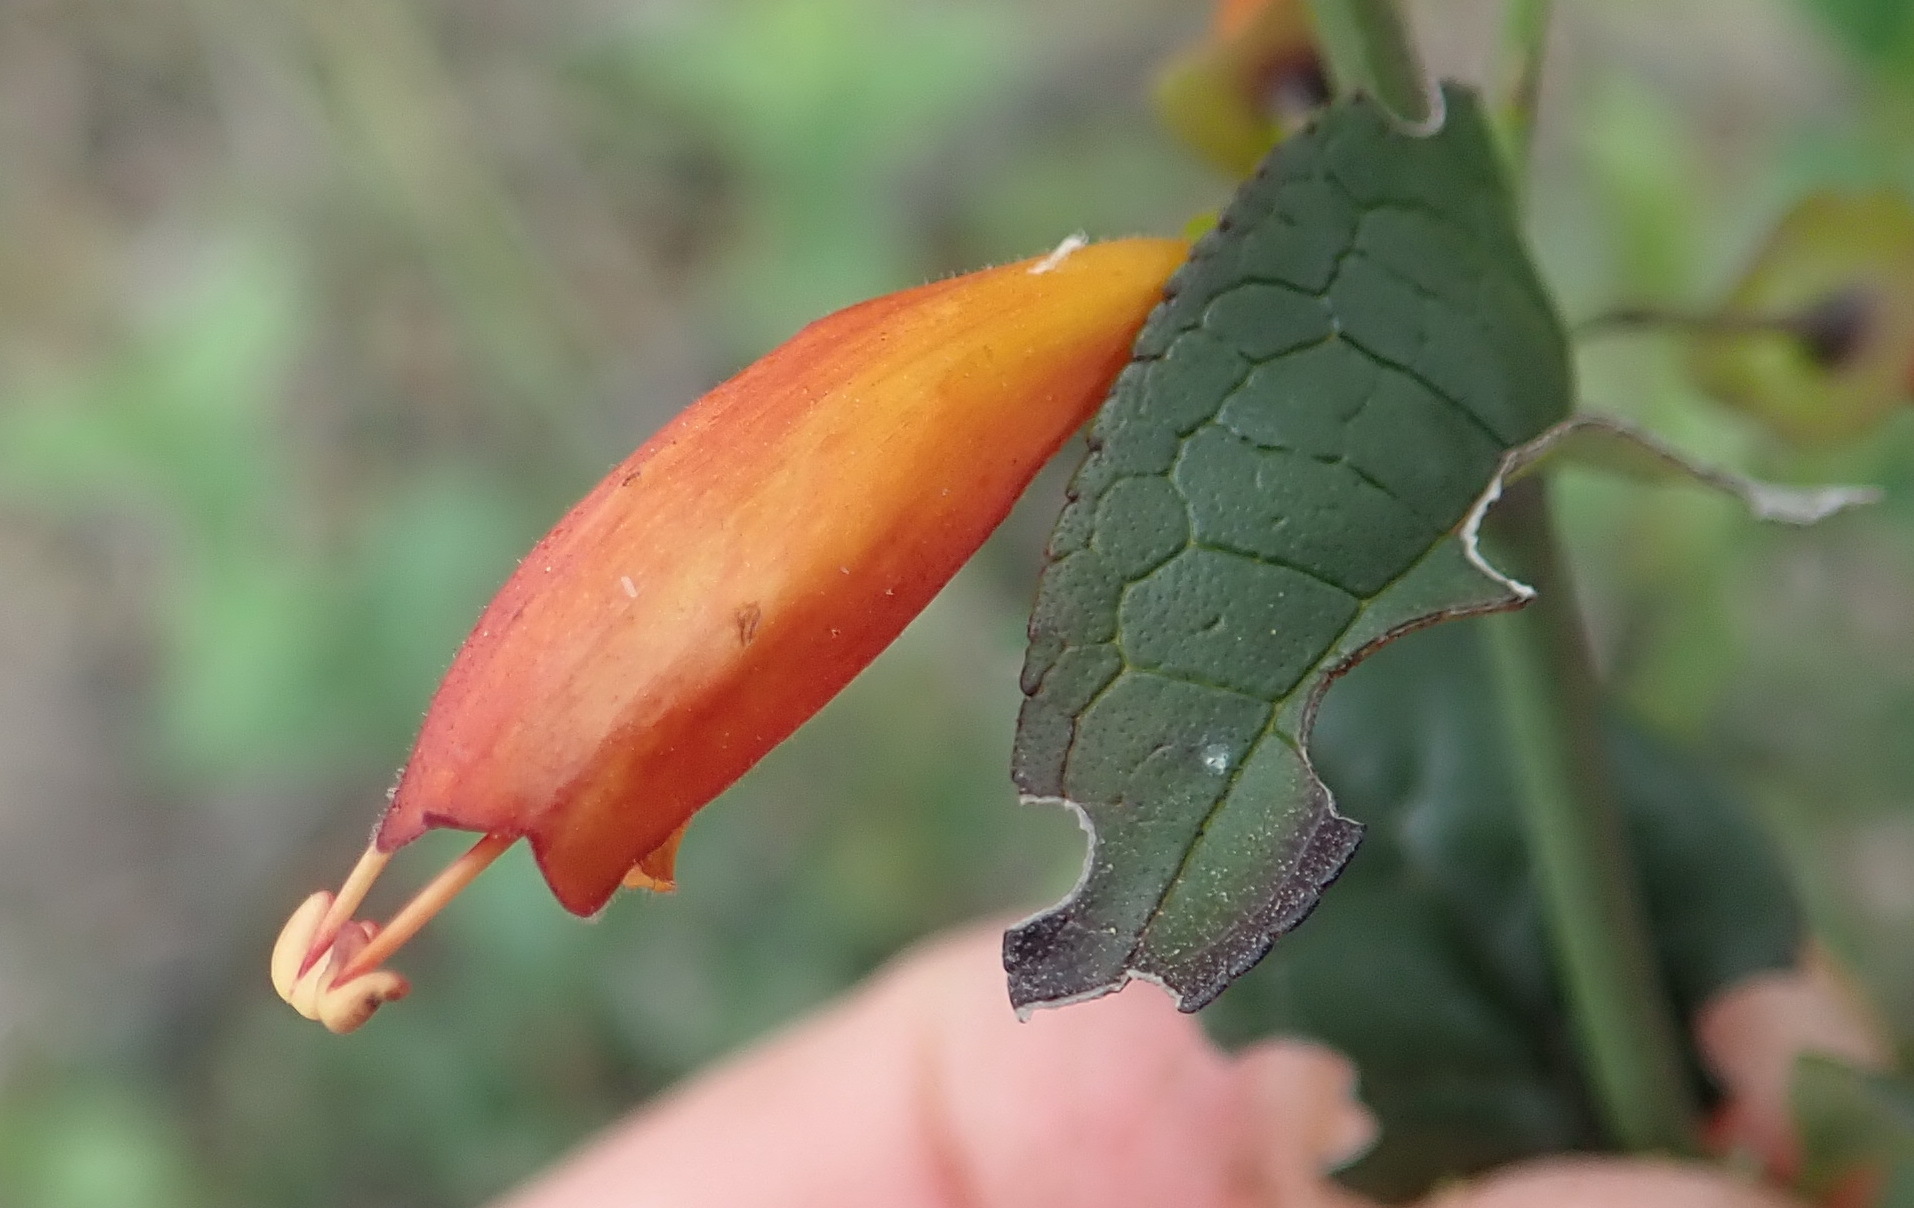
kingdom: Plantae
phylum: Tracheophyta
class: Magnoliopsida
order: Lamiales
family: Stilbaceae
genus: Halleria
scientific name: Halleria lucida
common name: Tree fuschia
